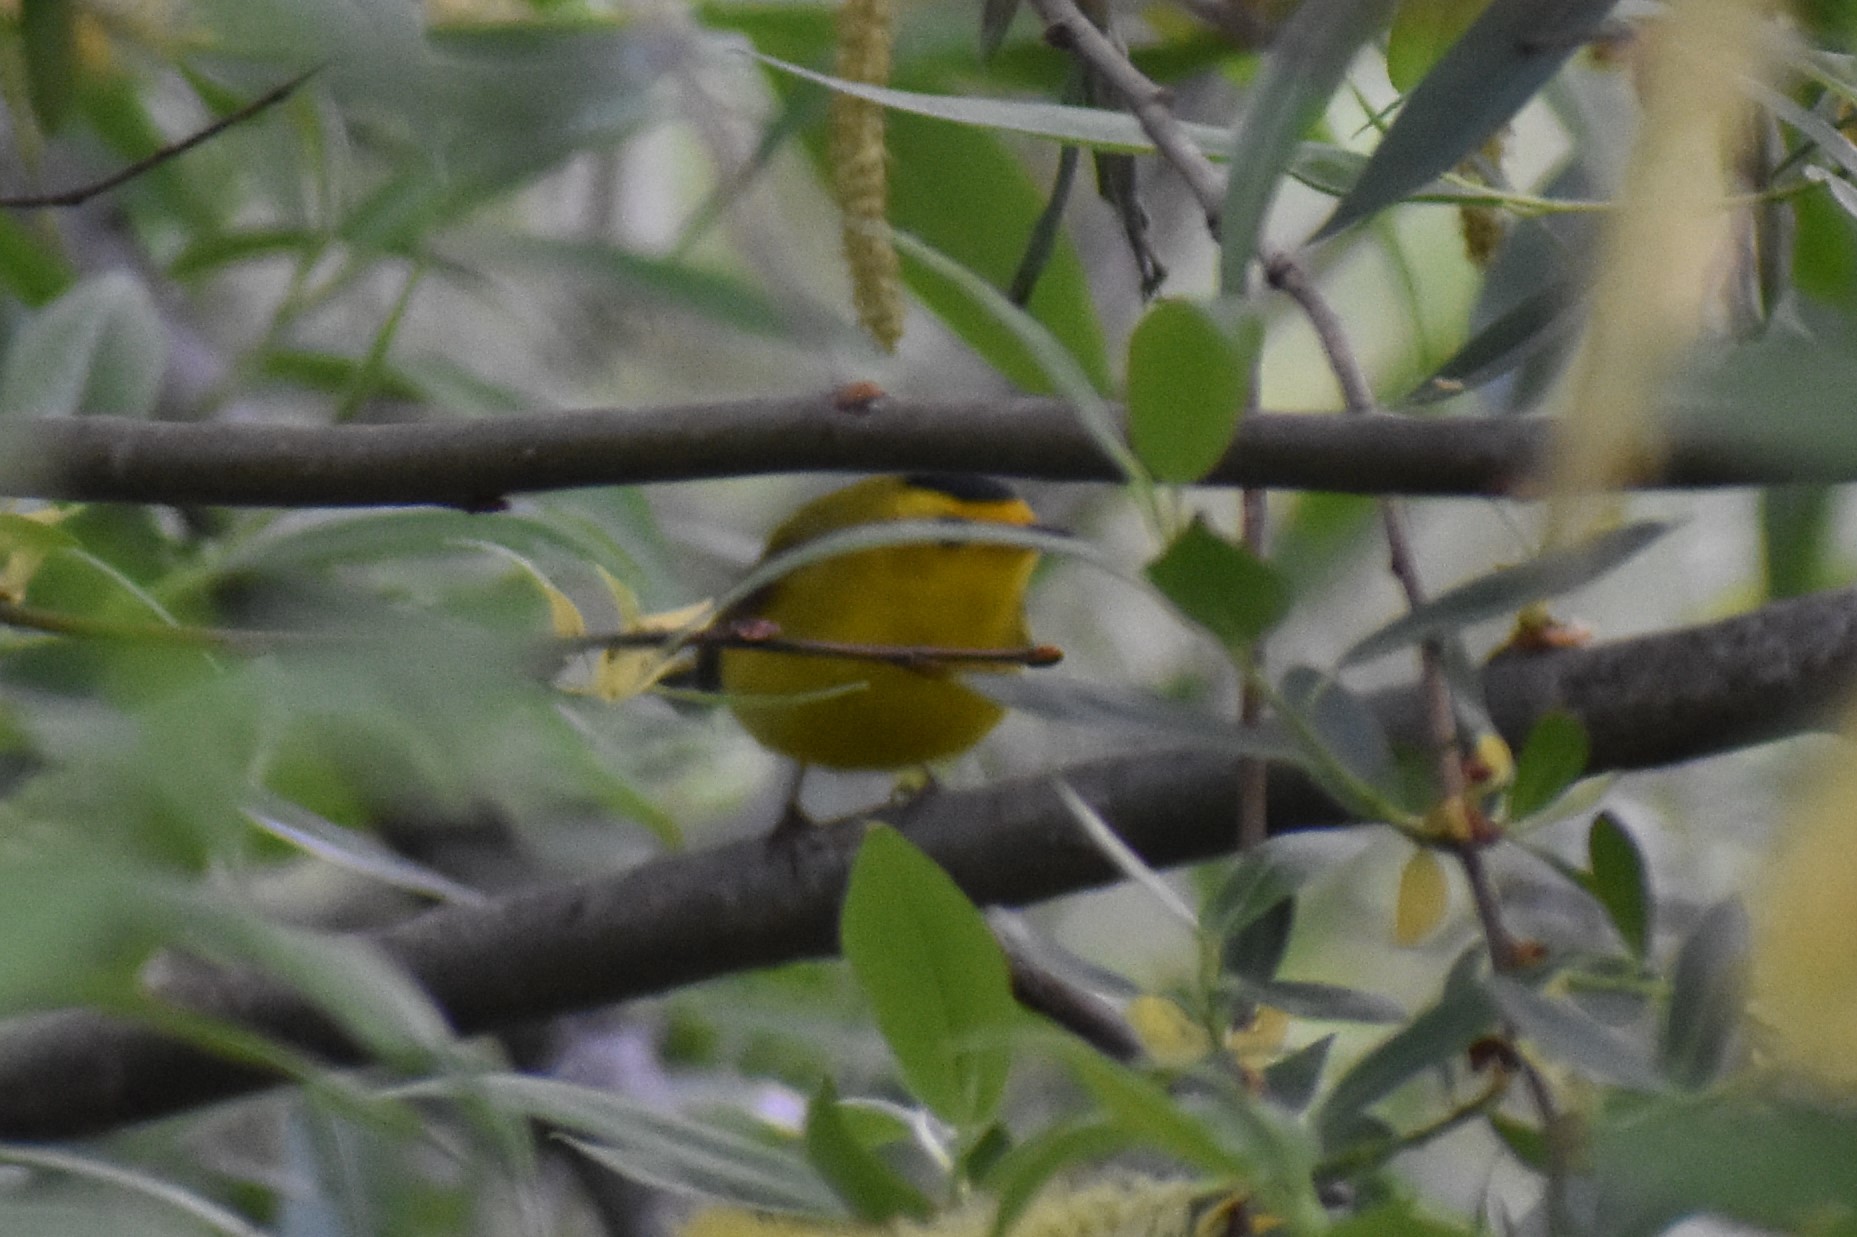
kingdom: Animalia
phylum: Chordata
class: Aves
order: Passeriformes
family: Parulidae
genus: Cardellina
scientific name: Cardellina pusilla
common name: Wilson's warbler
